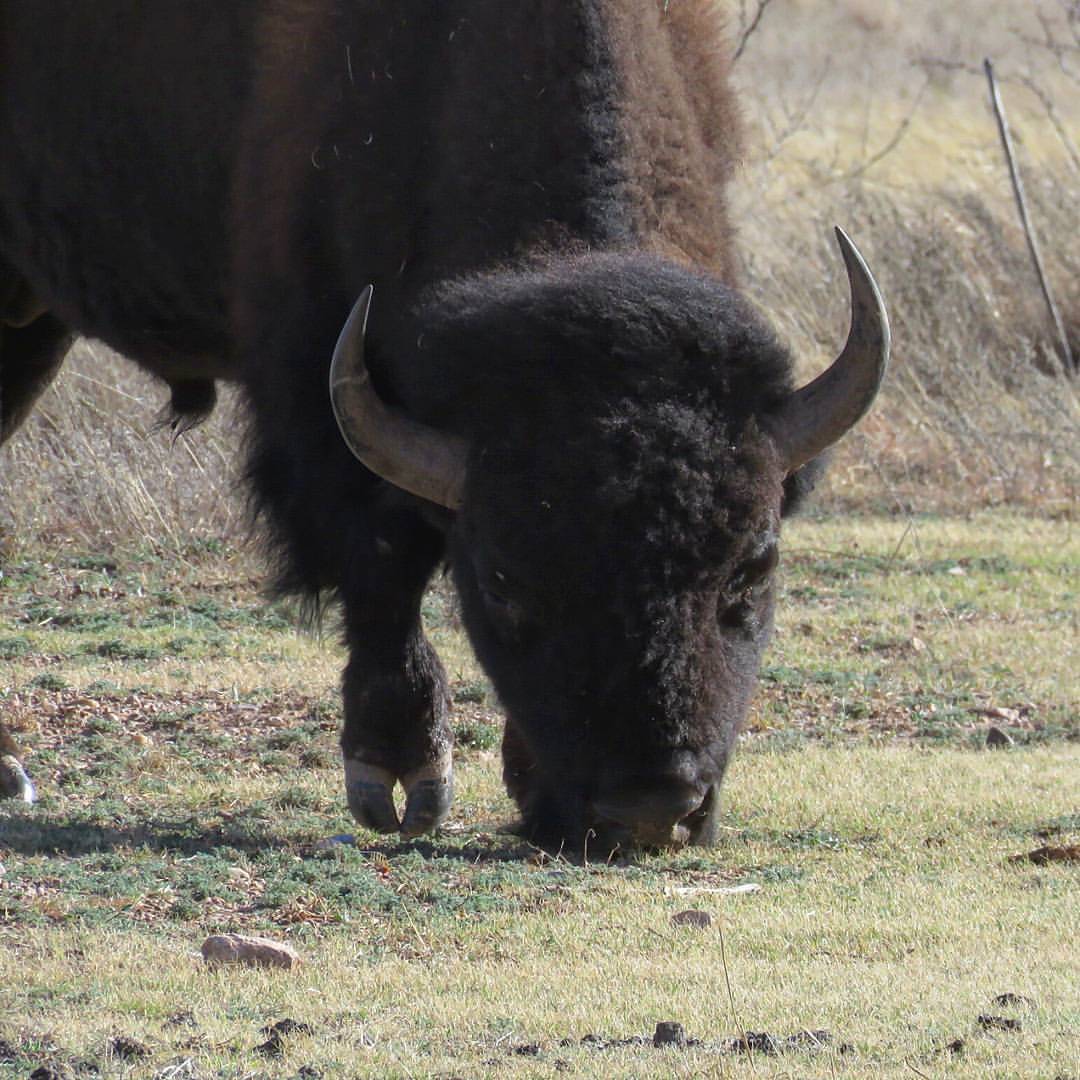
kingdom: Animalia
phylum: Chordata
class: Mammalia
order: Artiodactyla
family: Bovidae
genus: Bison
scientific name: Bison bison
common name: American bison
